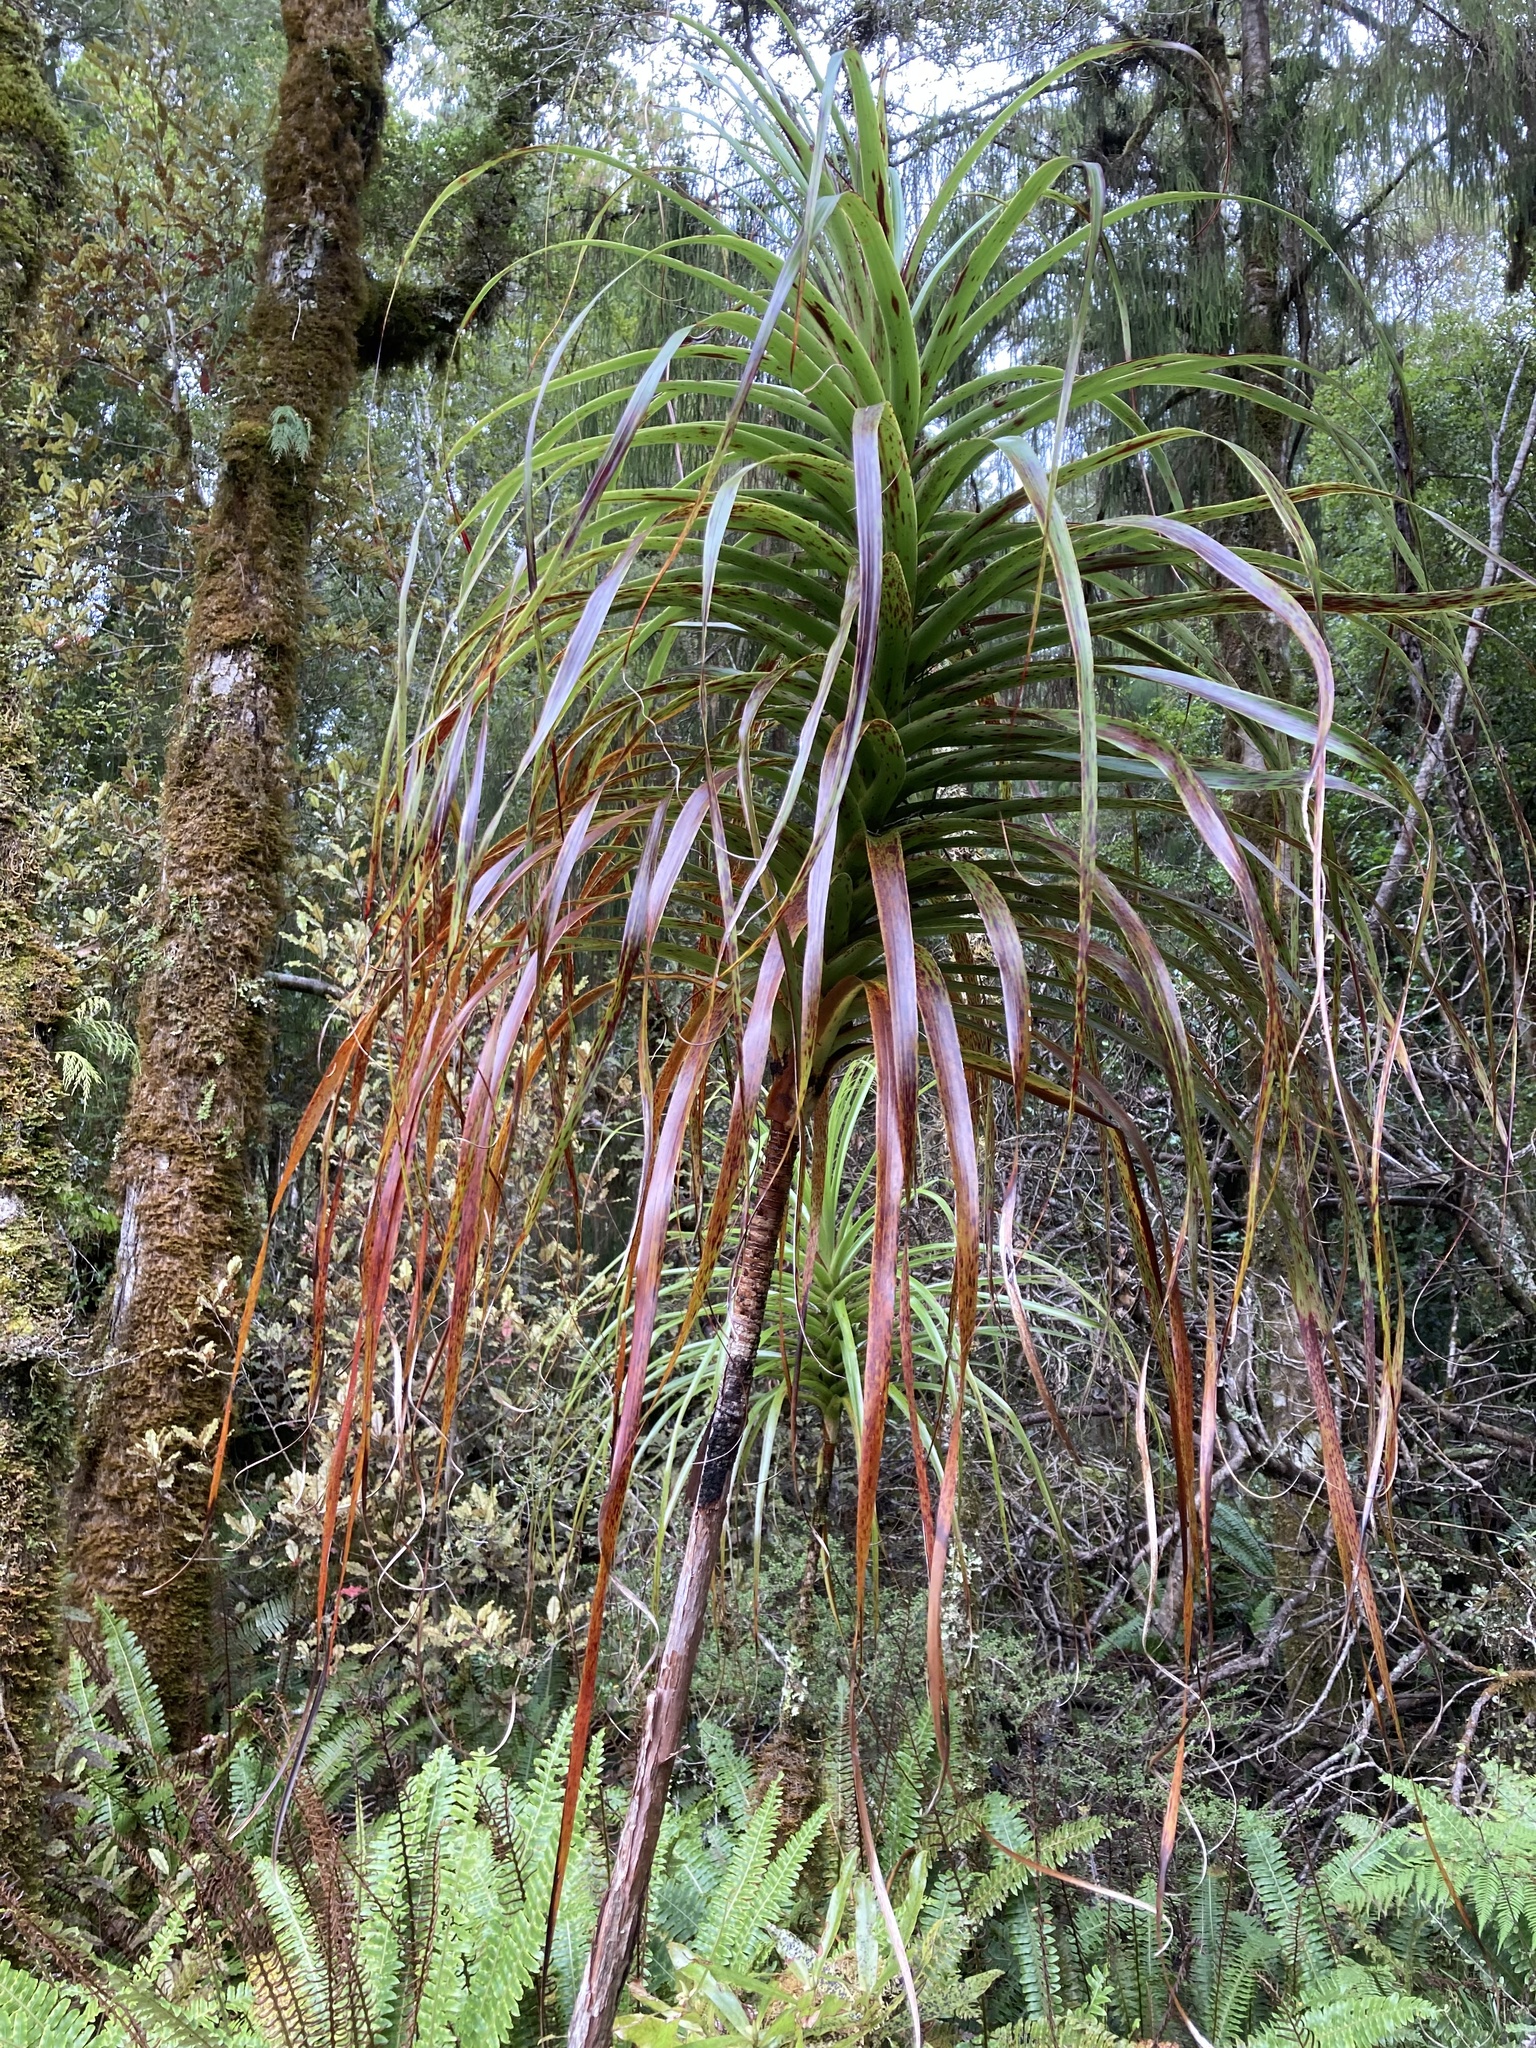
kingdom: Plantae
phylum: Tracheophyta
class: Magnoliopsida
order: Ericales
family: Ericaceae
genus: Dracophyllum
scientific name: Dracophyllum elegantissimum
